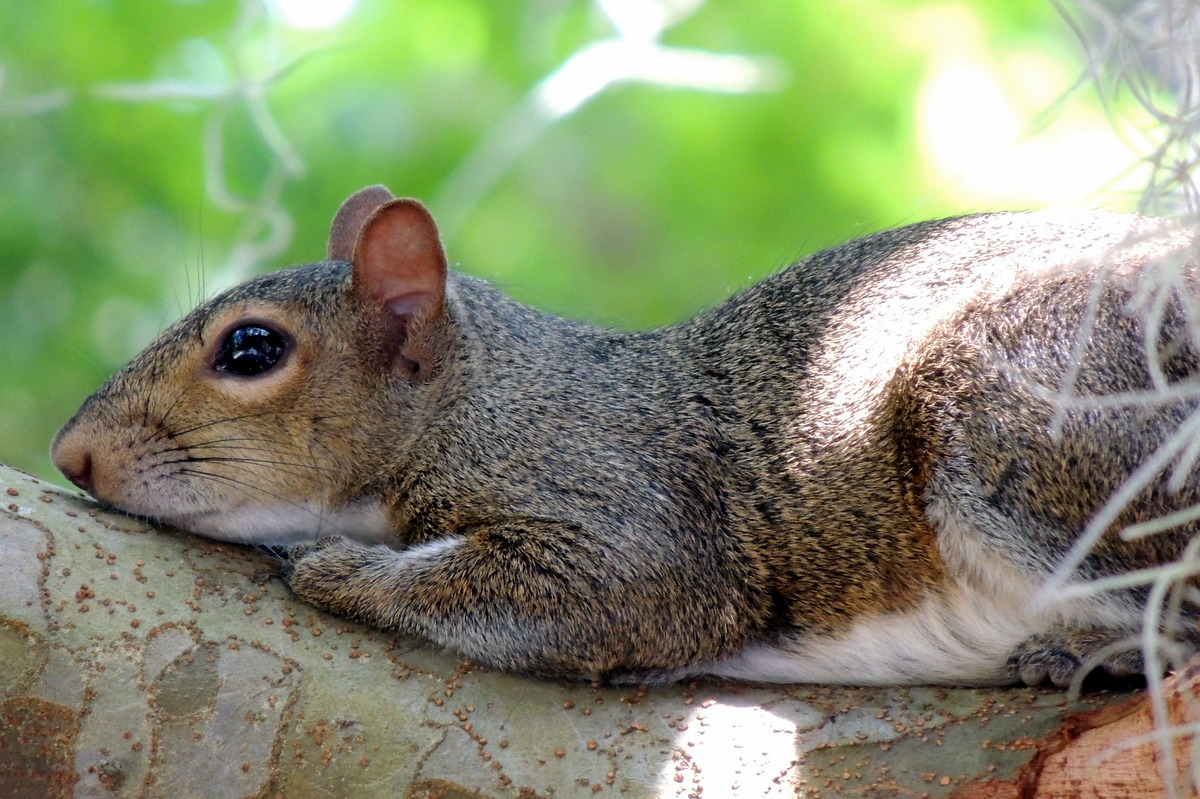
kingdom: Animalia
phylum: Chordata
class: Mammalia
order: Rodentia
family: Sciuridae
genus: Sciurus
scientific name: Sciurus carolinensis
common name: Eastern gray squirrel
